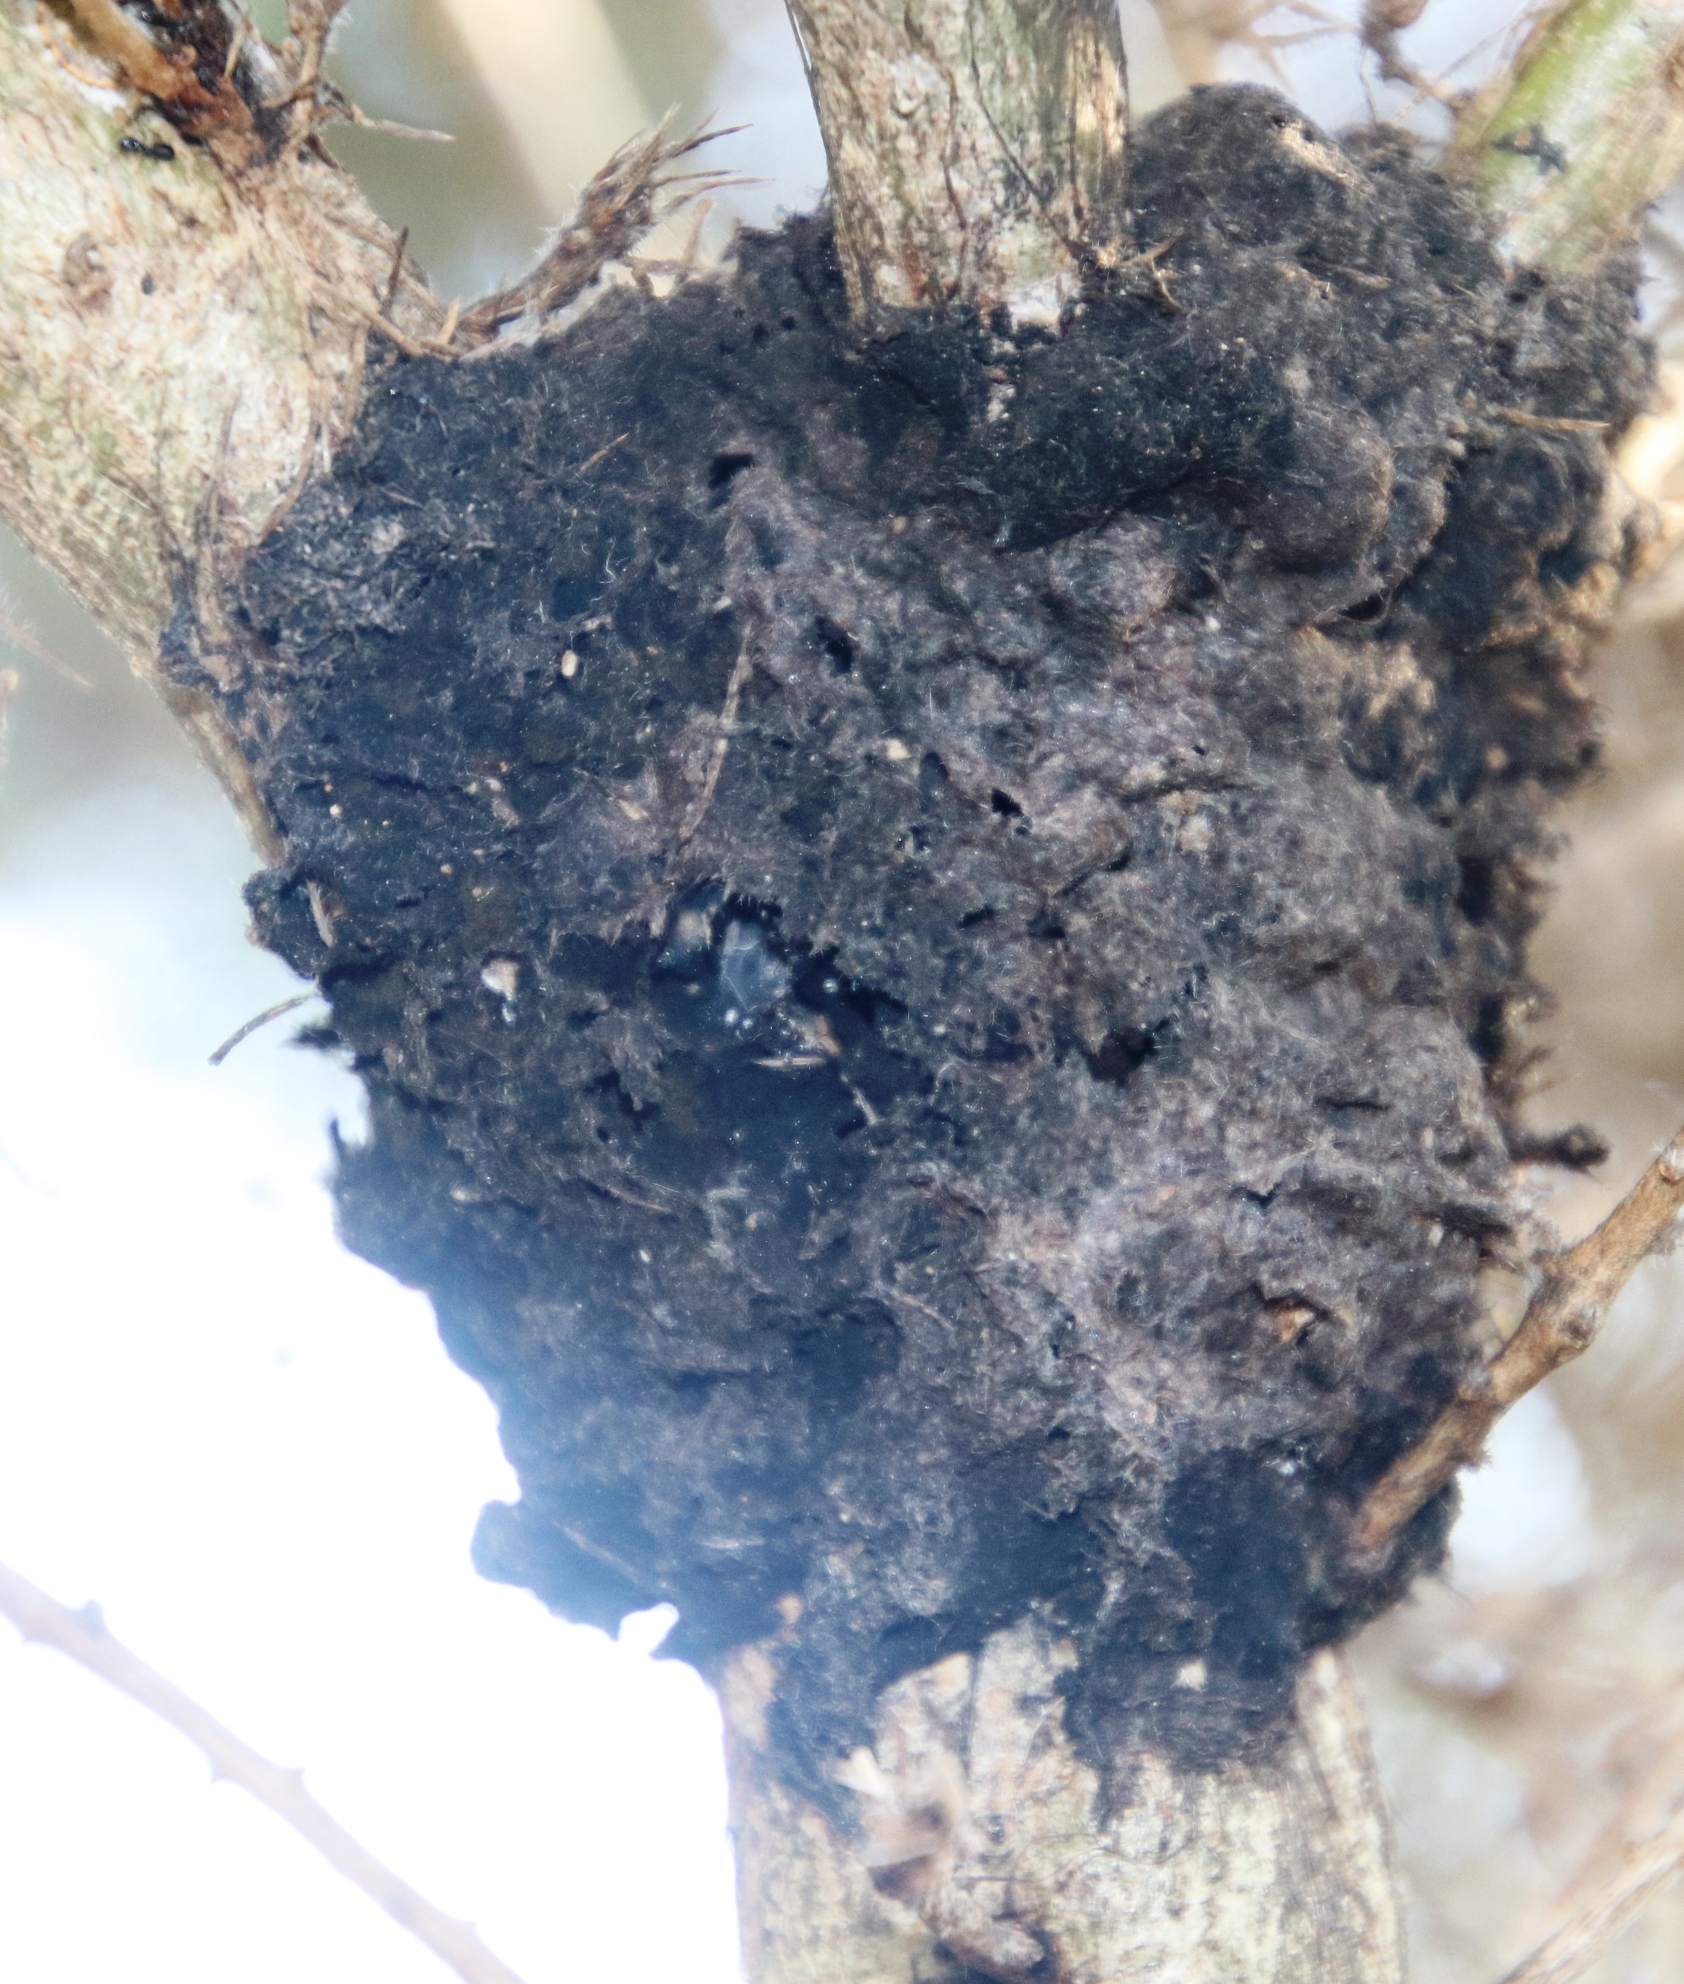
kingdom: Animalia
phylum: Arthropoda
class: Insecta
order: Hymenoptera
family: Formicidae
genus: Crematogaster
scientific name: Crematogaster peringueyi
